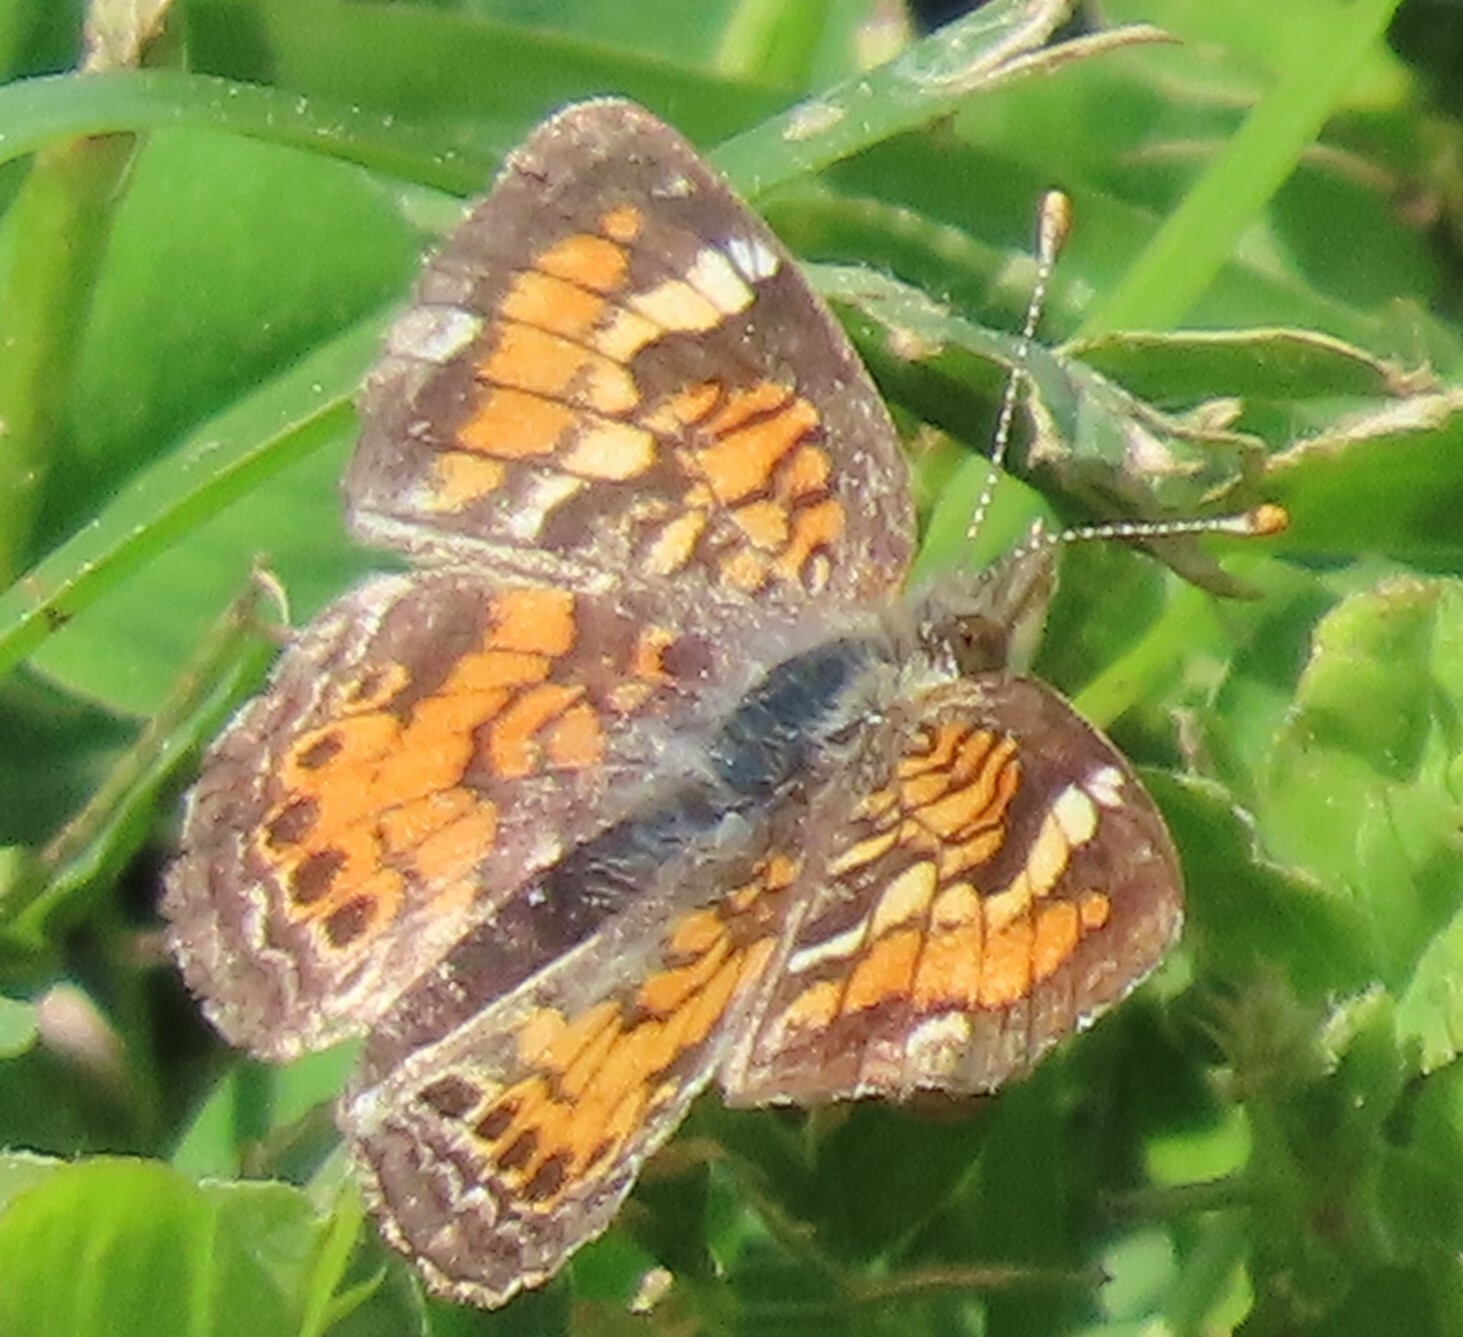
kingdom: Animalia
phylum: Arthropoda
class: Insecta
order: Lepidoptera
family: Nymphalidae
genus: Phyciodes
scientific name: Phyciodes phaon
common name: Phaon crescent
